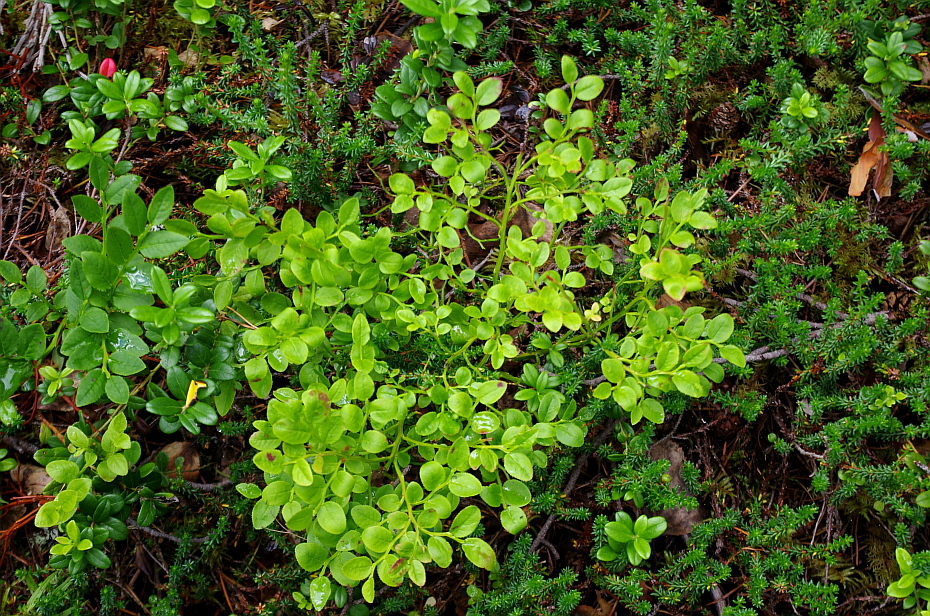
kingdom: Plantae
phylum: Tracheophyta
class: Magnoliopsida
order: Ericales
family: Ericaceae
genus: Vaccinium
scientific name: Vaccinium myrtillus
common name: Bilberry
